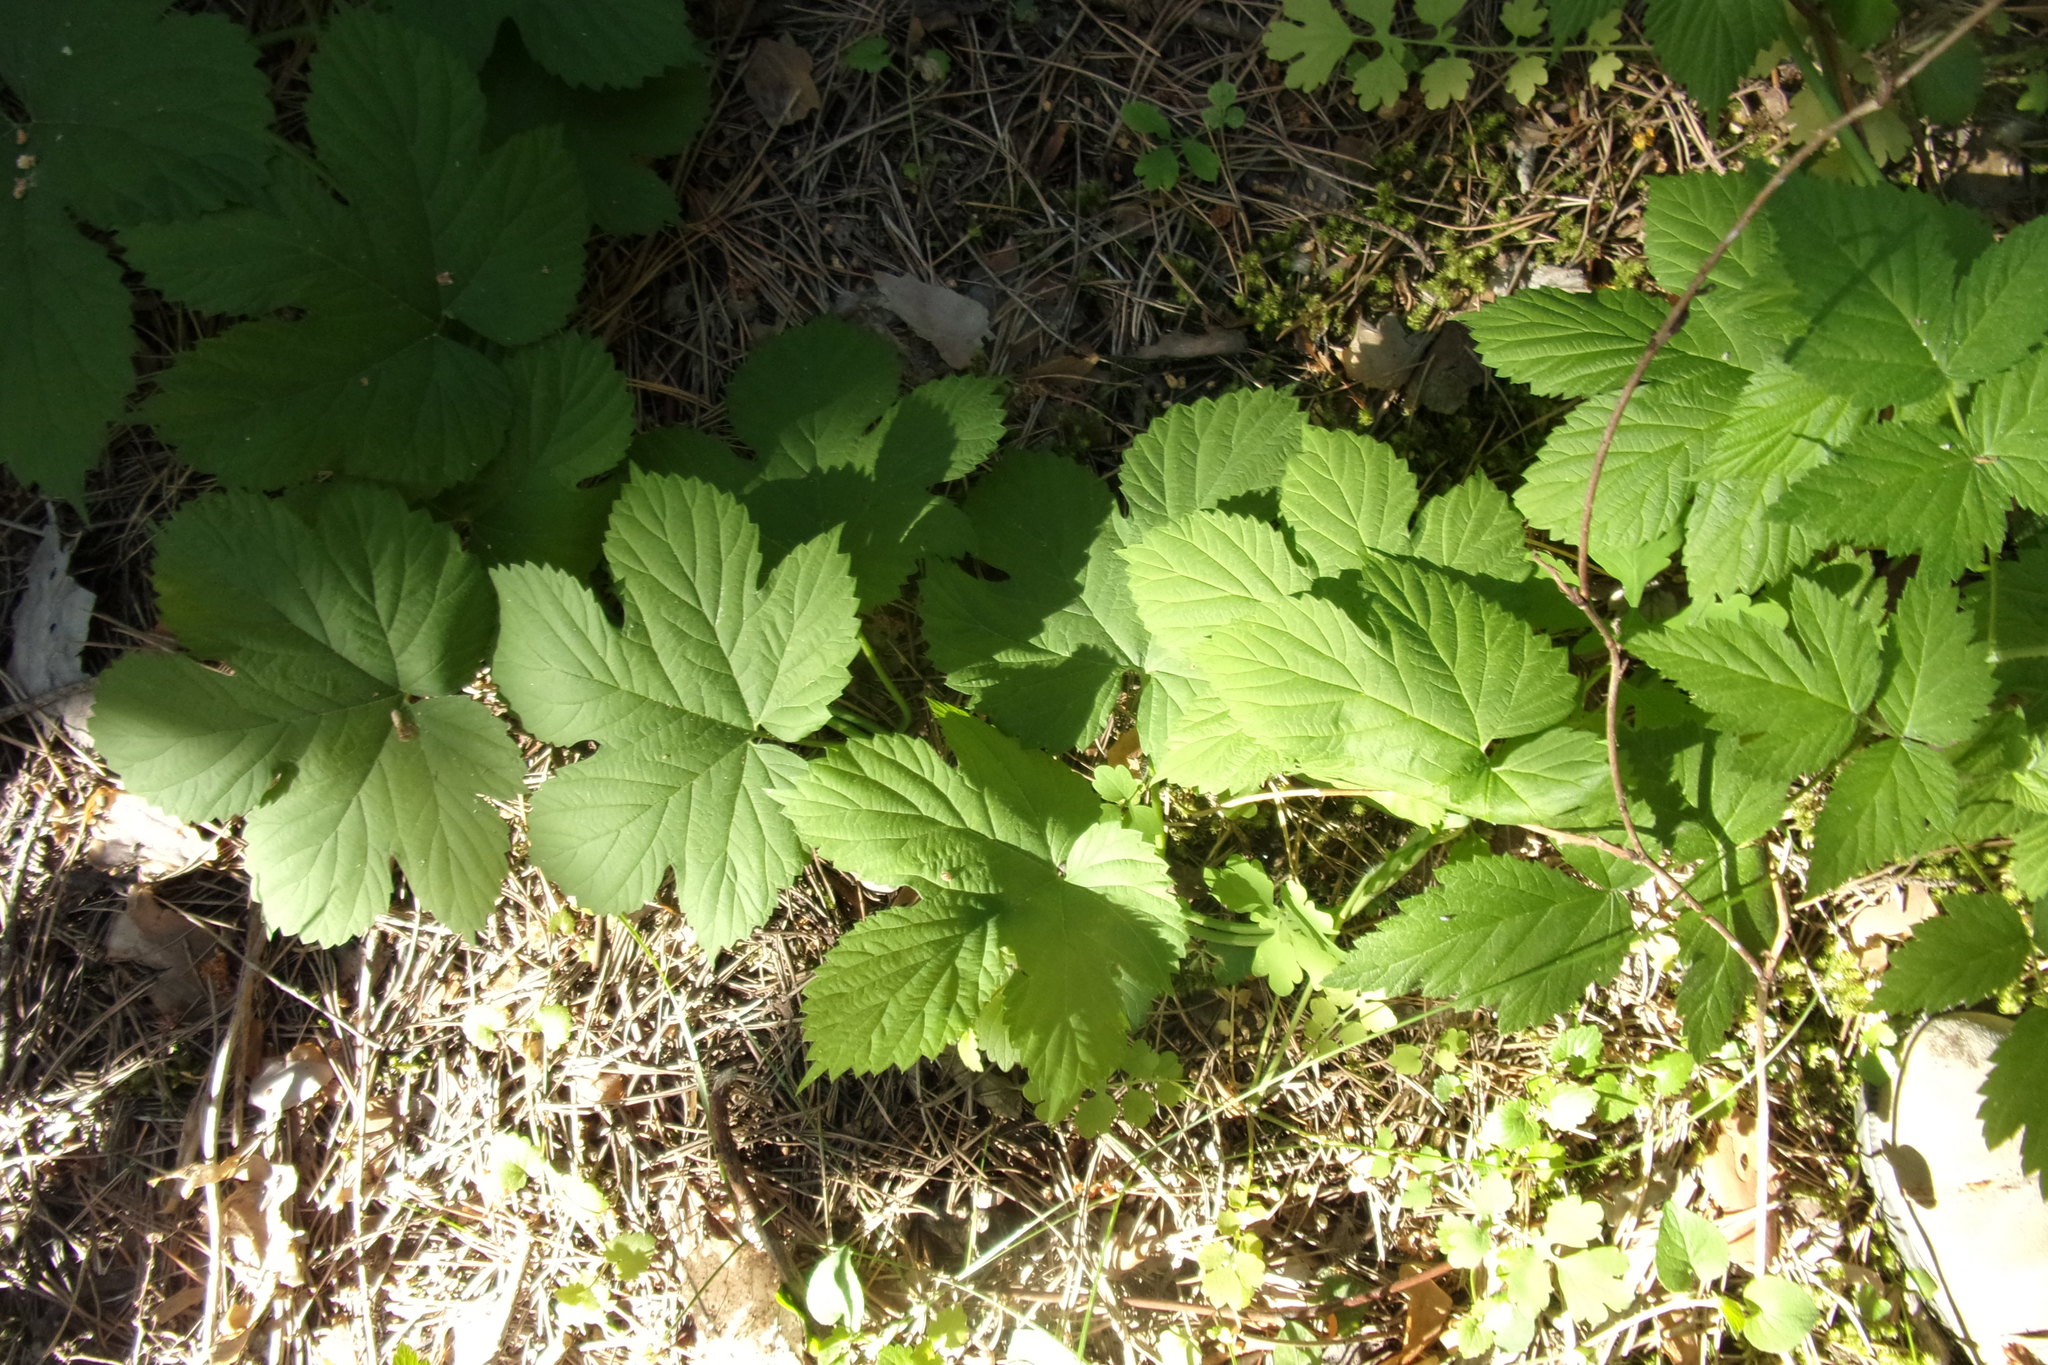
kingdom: Plantae
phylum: Tracheophyta
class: Magnoliopsida
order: Rosales
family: Cannabaceae
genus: Humulus
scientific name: Humulus lupulus
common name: Hop
